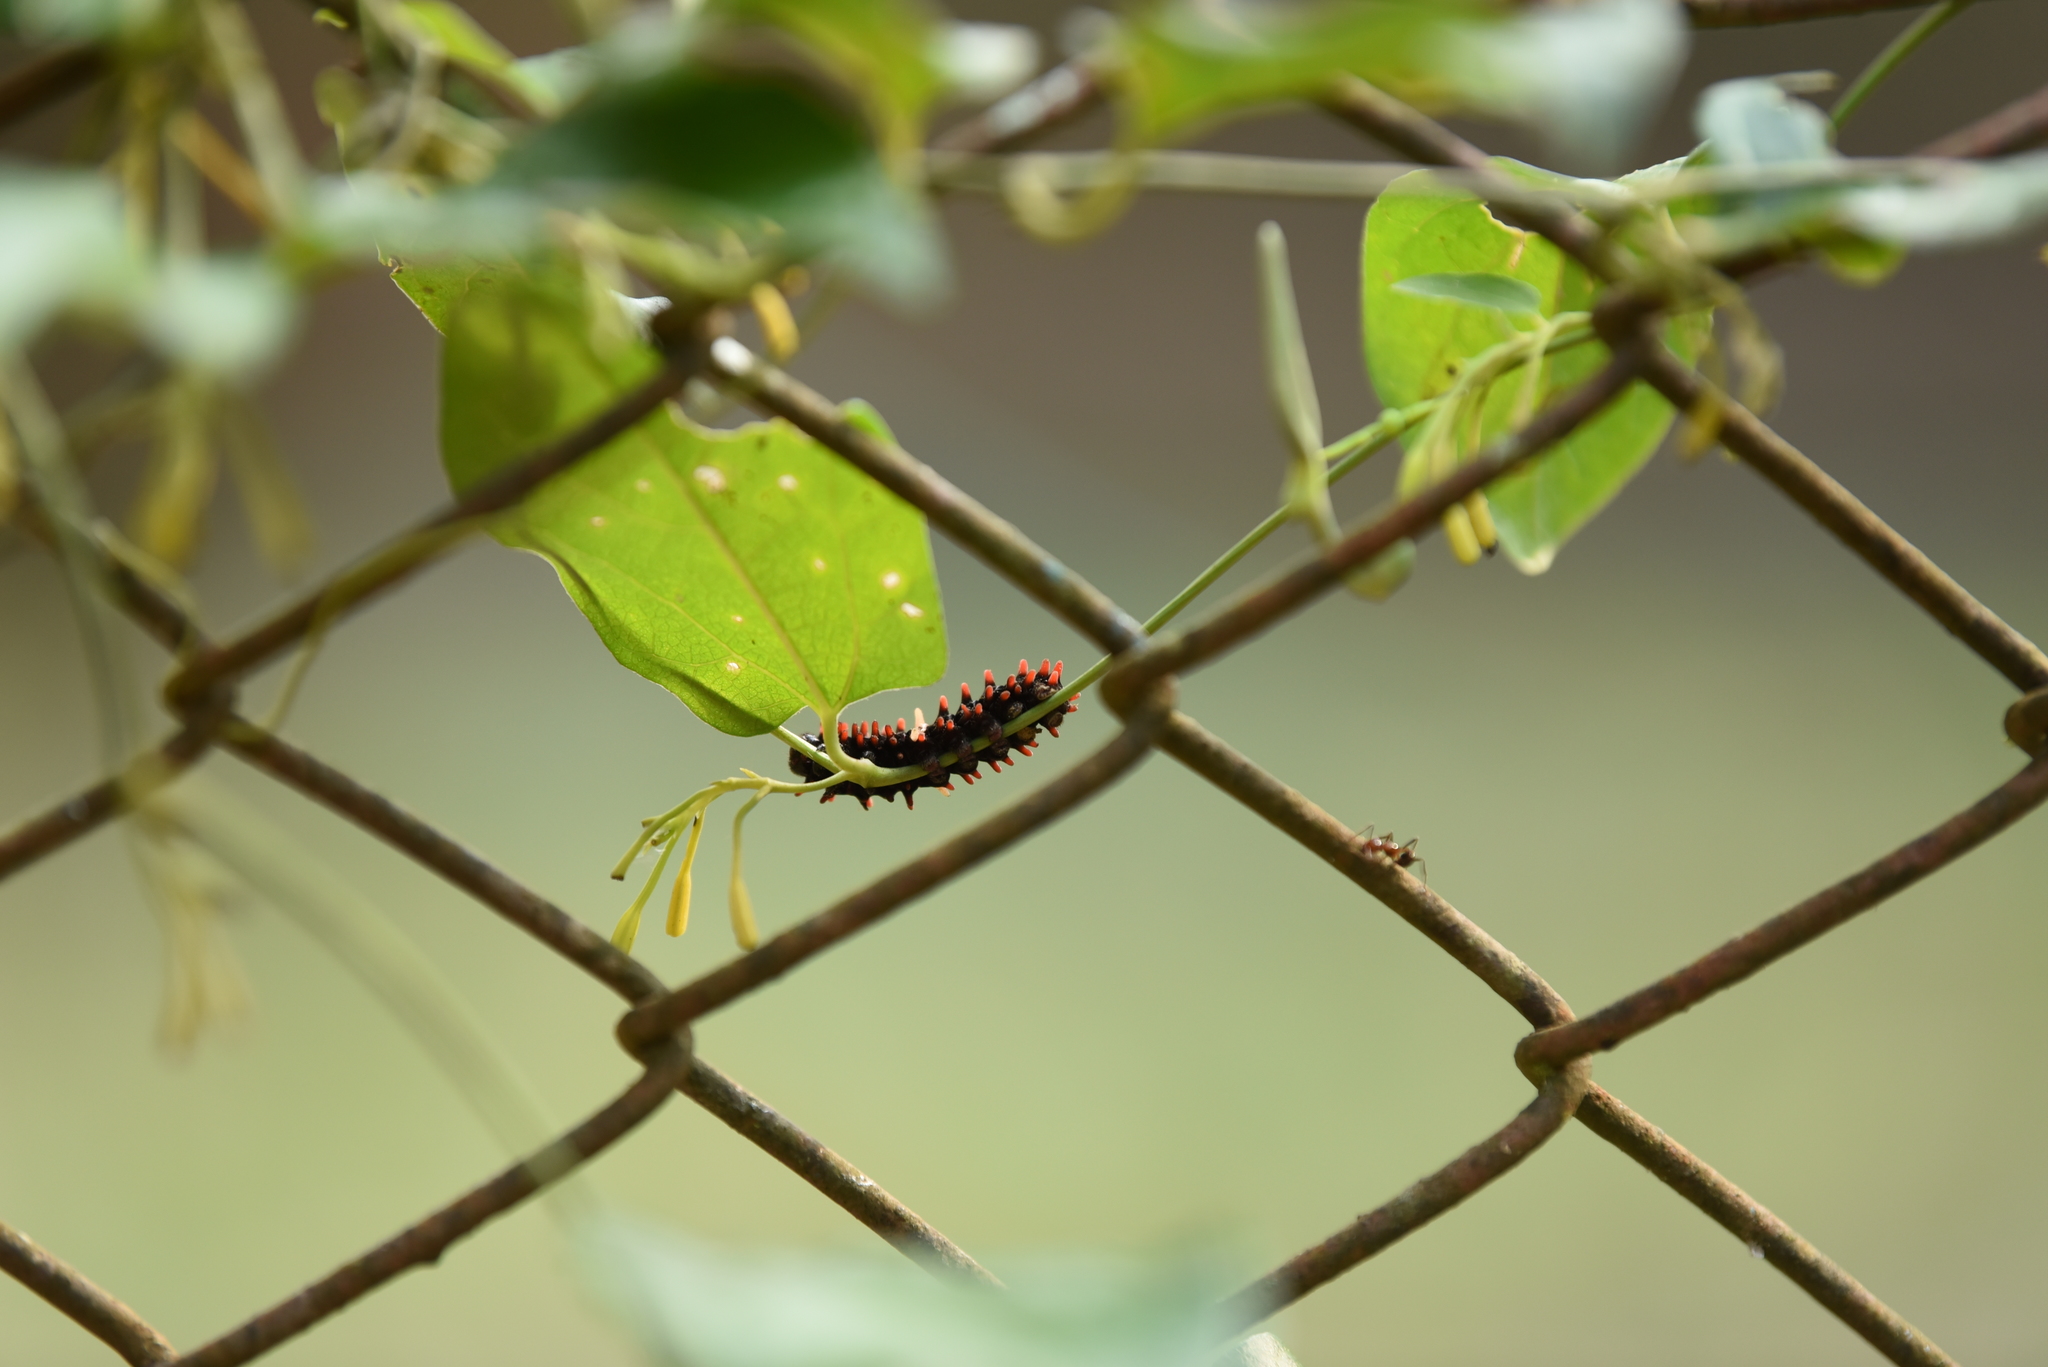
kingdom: Animalia
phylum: Arthropoda
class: Insecta
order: Lepidoptera
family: Papilionidae
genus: Pachliopta
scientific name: Pachliopta aristolochiae
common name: Common rose
